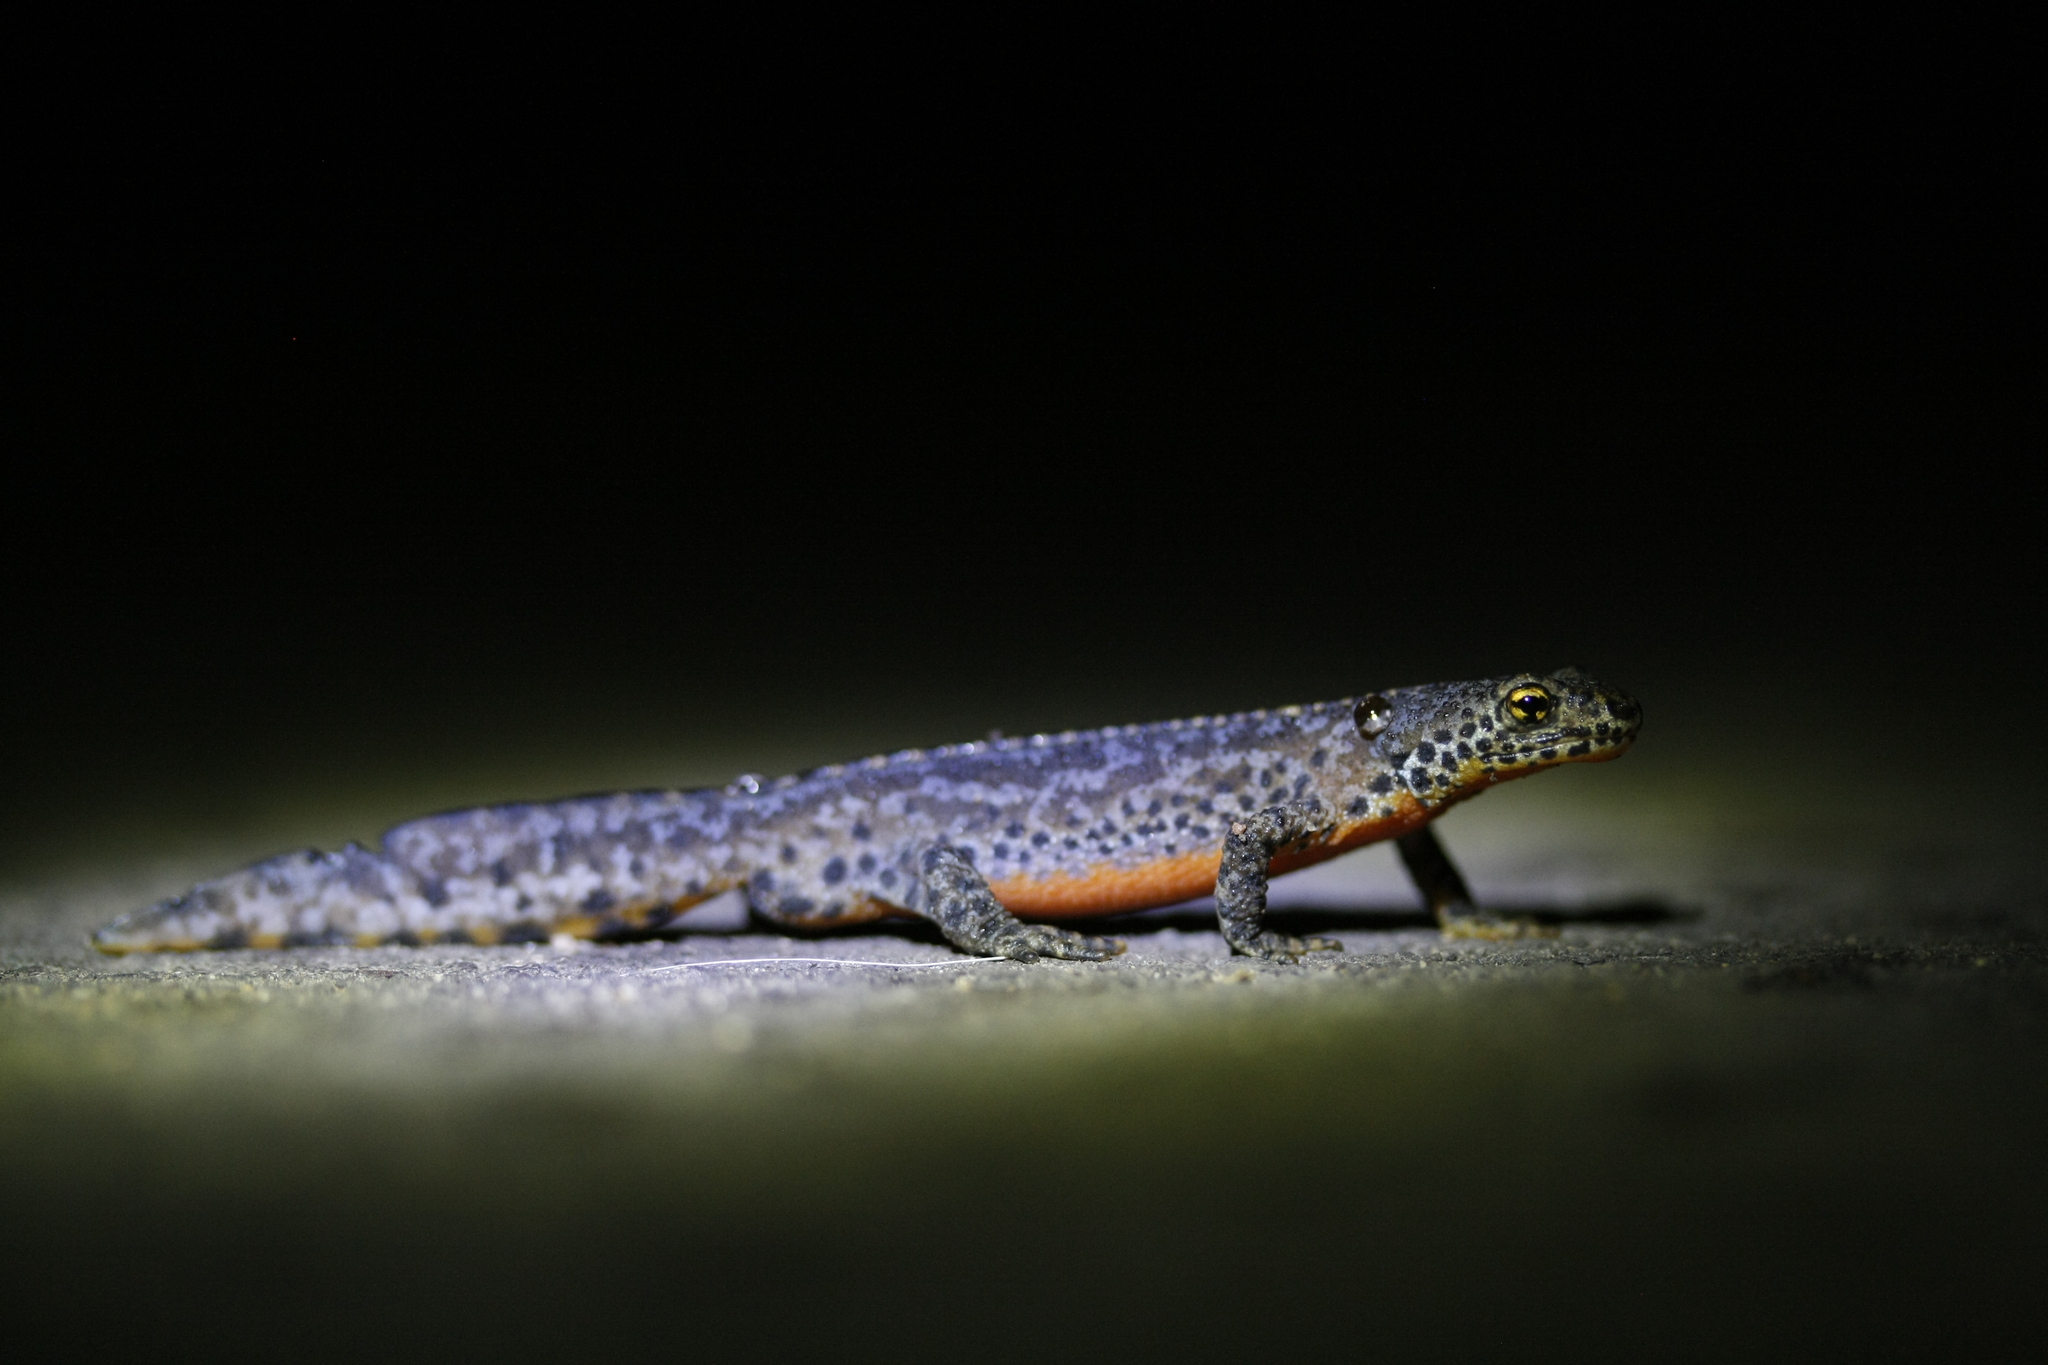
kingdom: Animalia
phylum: Chordata
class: Amphibia
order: Caudata
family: Salamandridae
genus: Ichthyosaura
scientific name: Ichthyosaura alpestris
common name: Alpine newt
